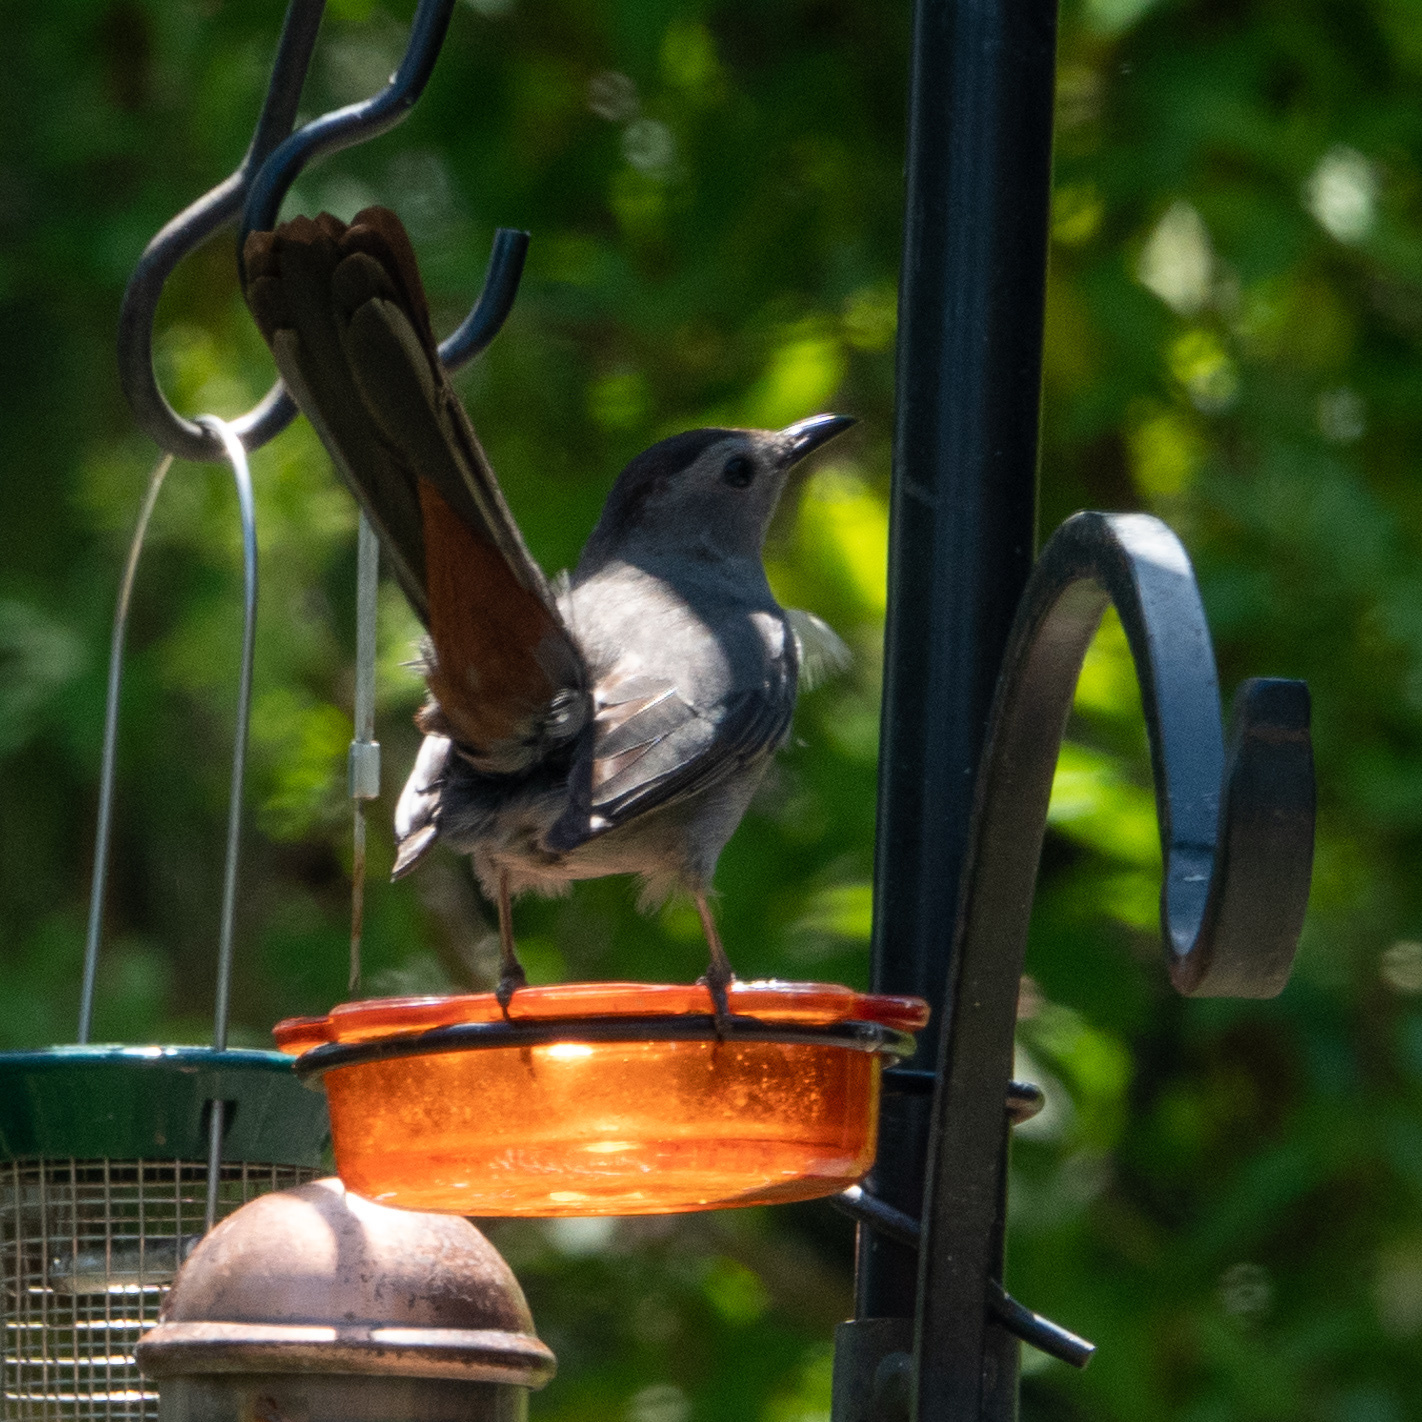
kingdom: Animalia
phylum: Chordata
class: Aves
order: Passeriformes
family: Mimidae
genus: Dumetella
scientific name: Dumetella carolinensis
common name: Gray catbird
